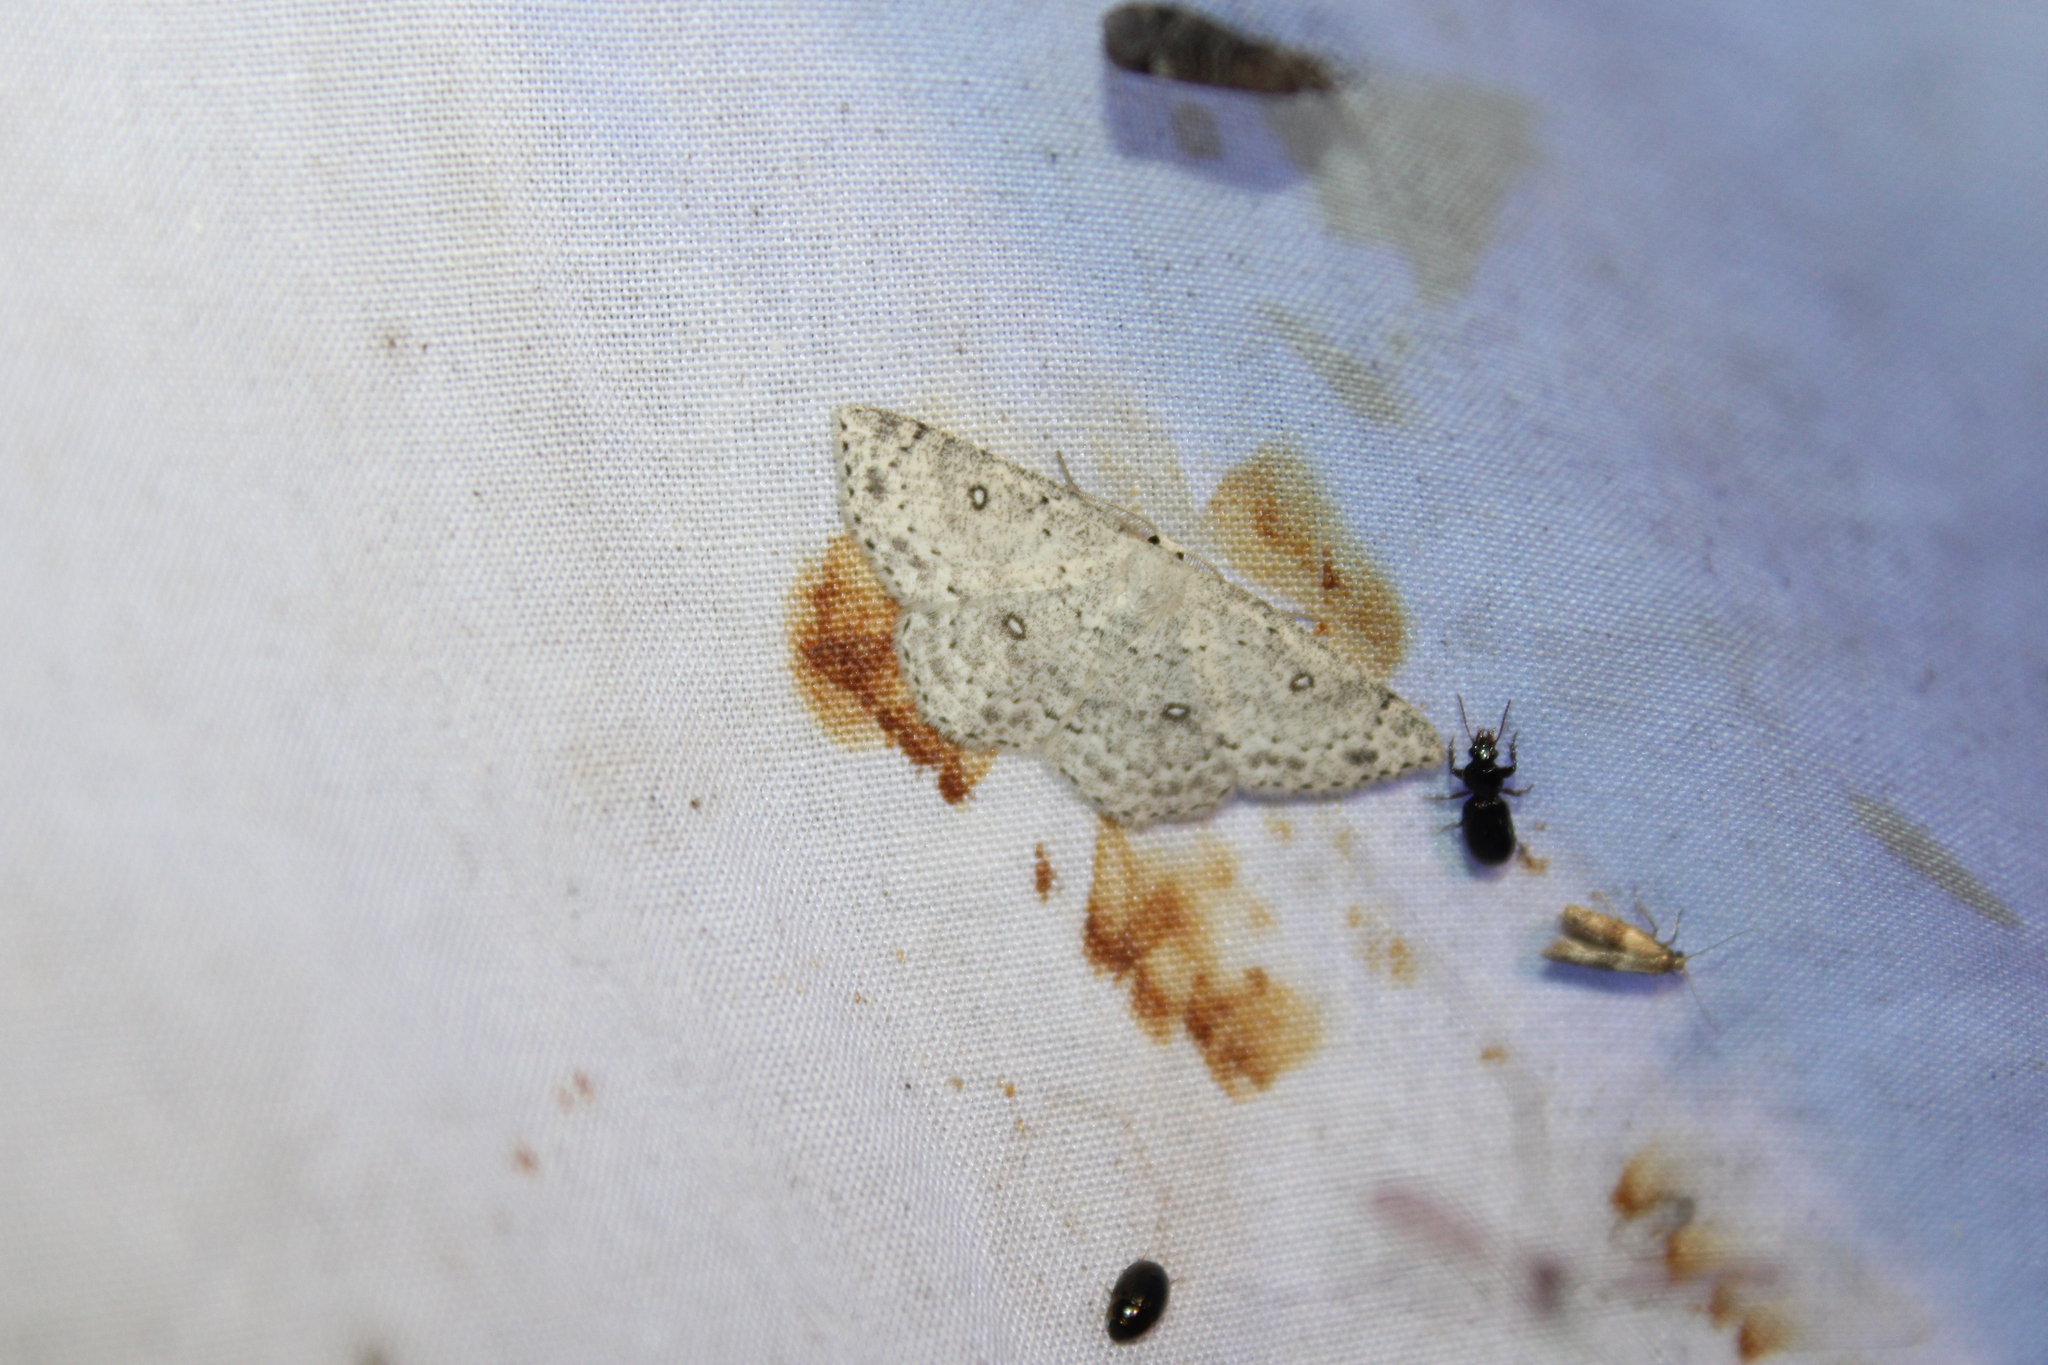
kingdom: Animalia
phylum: Arthropoda
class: Insecta
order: Lepidoptera
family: Geometridae
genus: Cyclophora
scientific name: Cyclophora pendulinaria
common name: Sweet fern geometer
